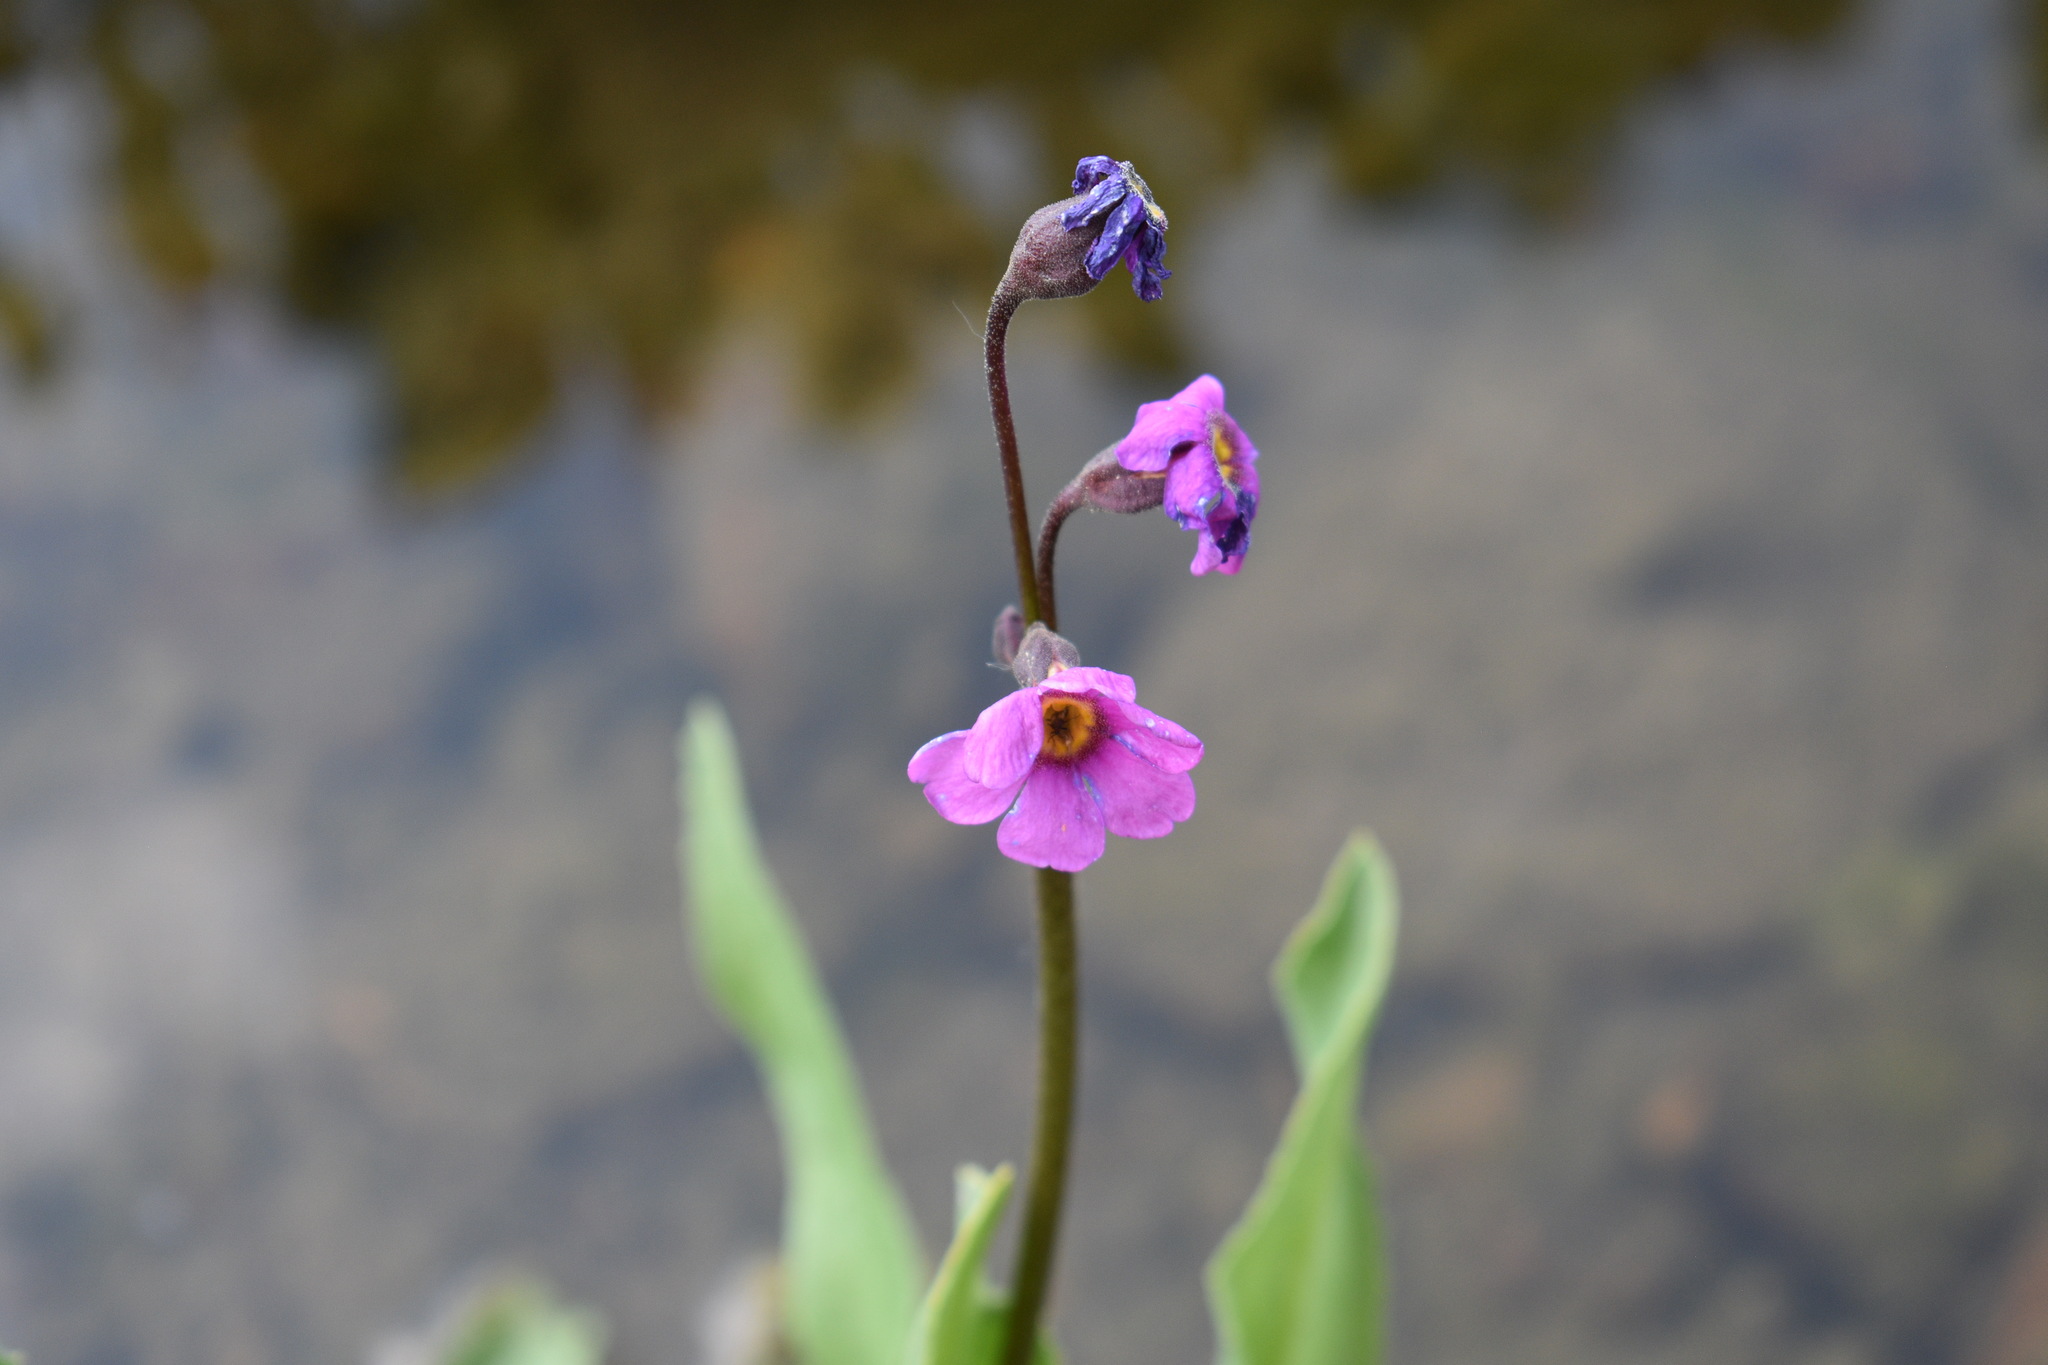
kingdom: Plantae
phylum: Tracheophyta
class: Magnoliopsida
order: Ericales
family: Primulaceae
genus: Primula
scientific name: Primula parryi
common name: Parry's primrose
